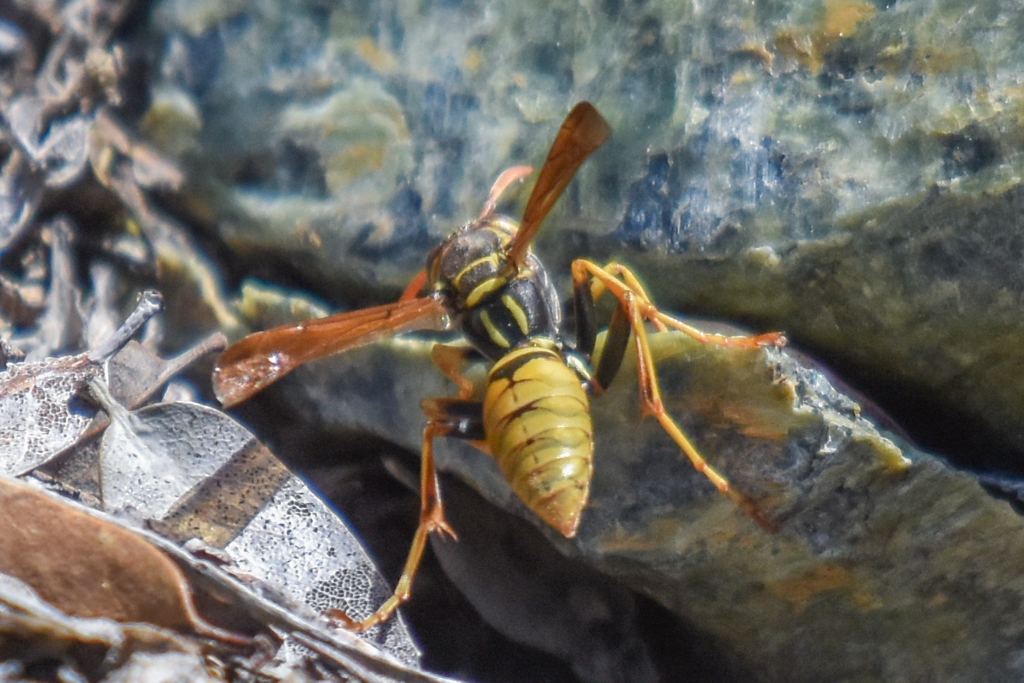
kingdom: Animalia
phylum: Arthropoda
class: Insecta
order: Hymenoptera
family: Eumenidae
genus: Polistes
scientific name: Polistes aurifer
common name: Paper wasp
